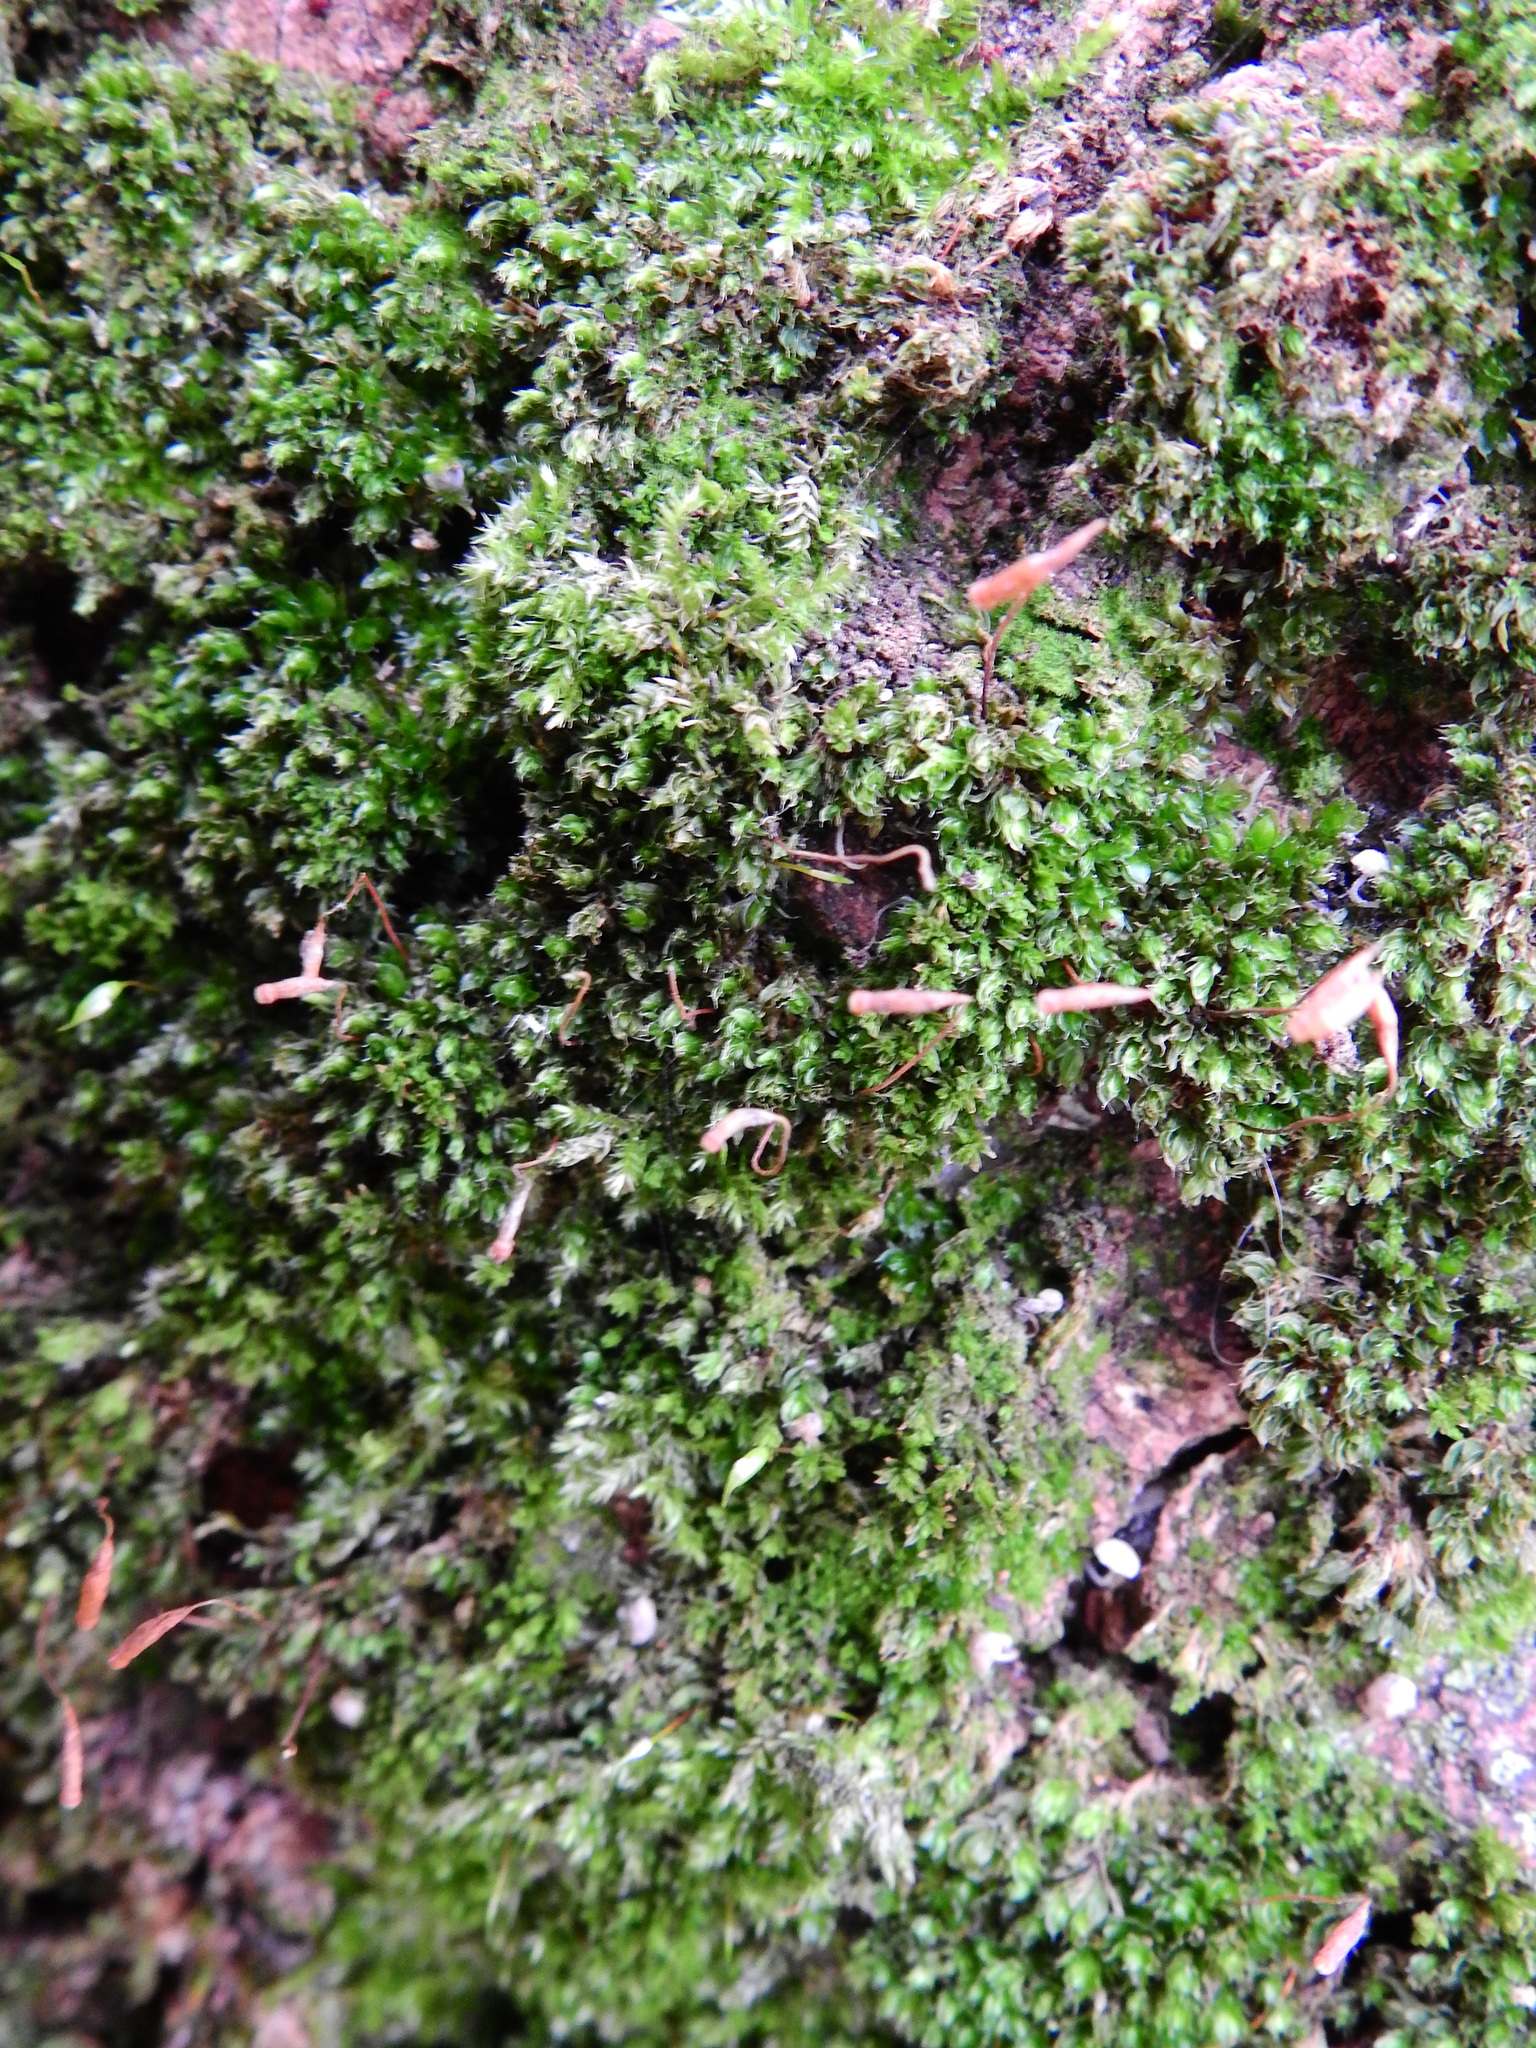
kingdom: Plantae
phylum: Bryophyta
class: Bryopsida
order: Bryales
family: Bryaceae
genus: Rosulabryum
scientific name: Rosulabryum capillare
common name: Capillary thread-moss
